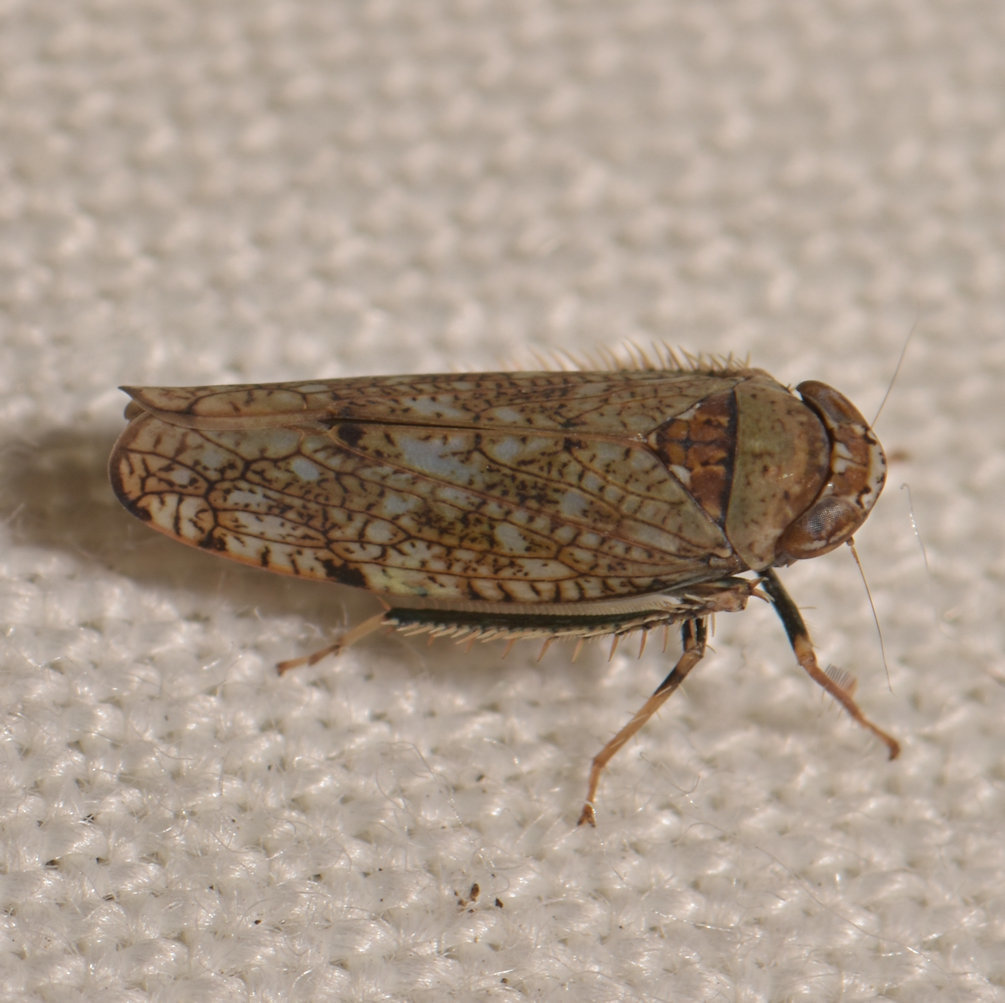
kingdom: Animalia
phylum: Arthropoda
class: Insecta
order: Hemiptera
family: Cicadellidae
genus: Orientus
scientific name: Orientus ishidae
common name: Japanese leafhopper
